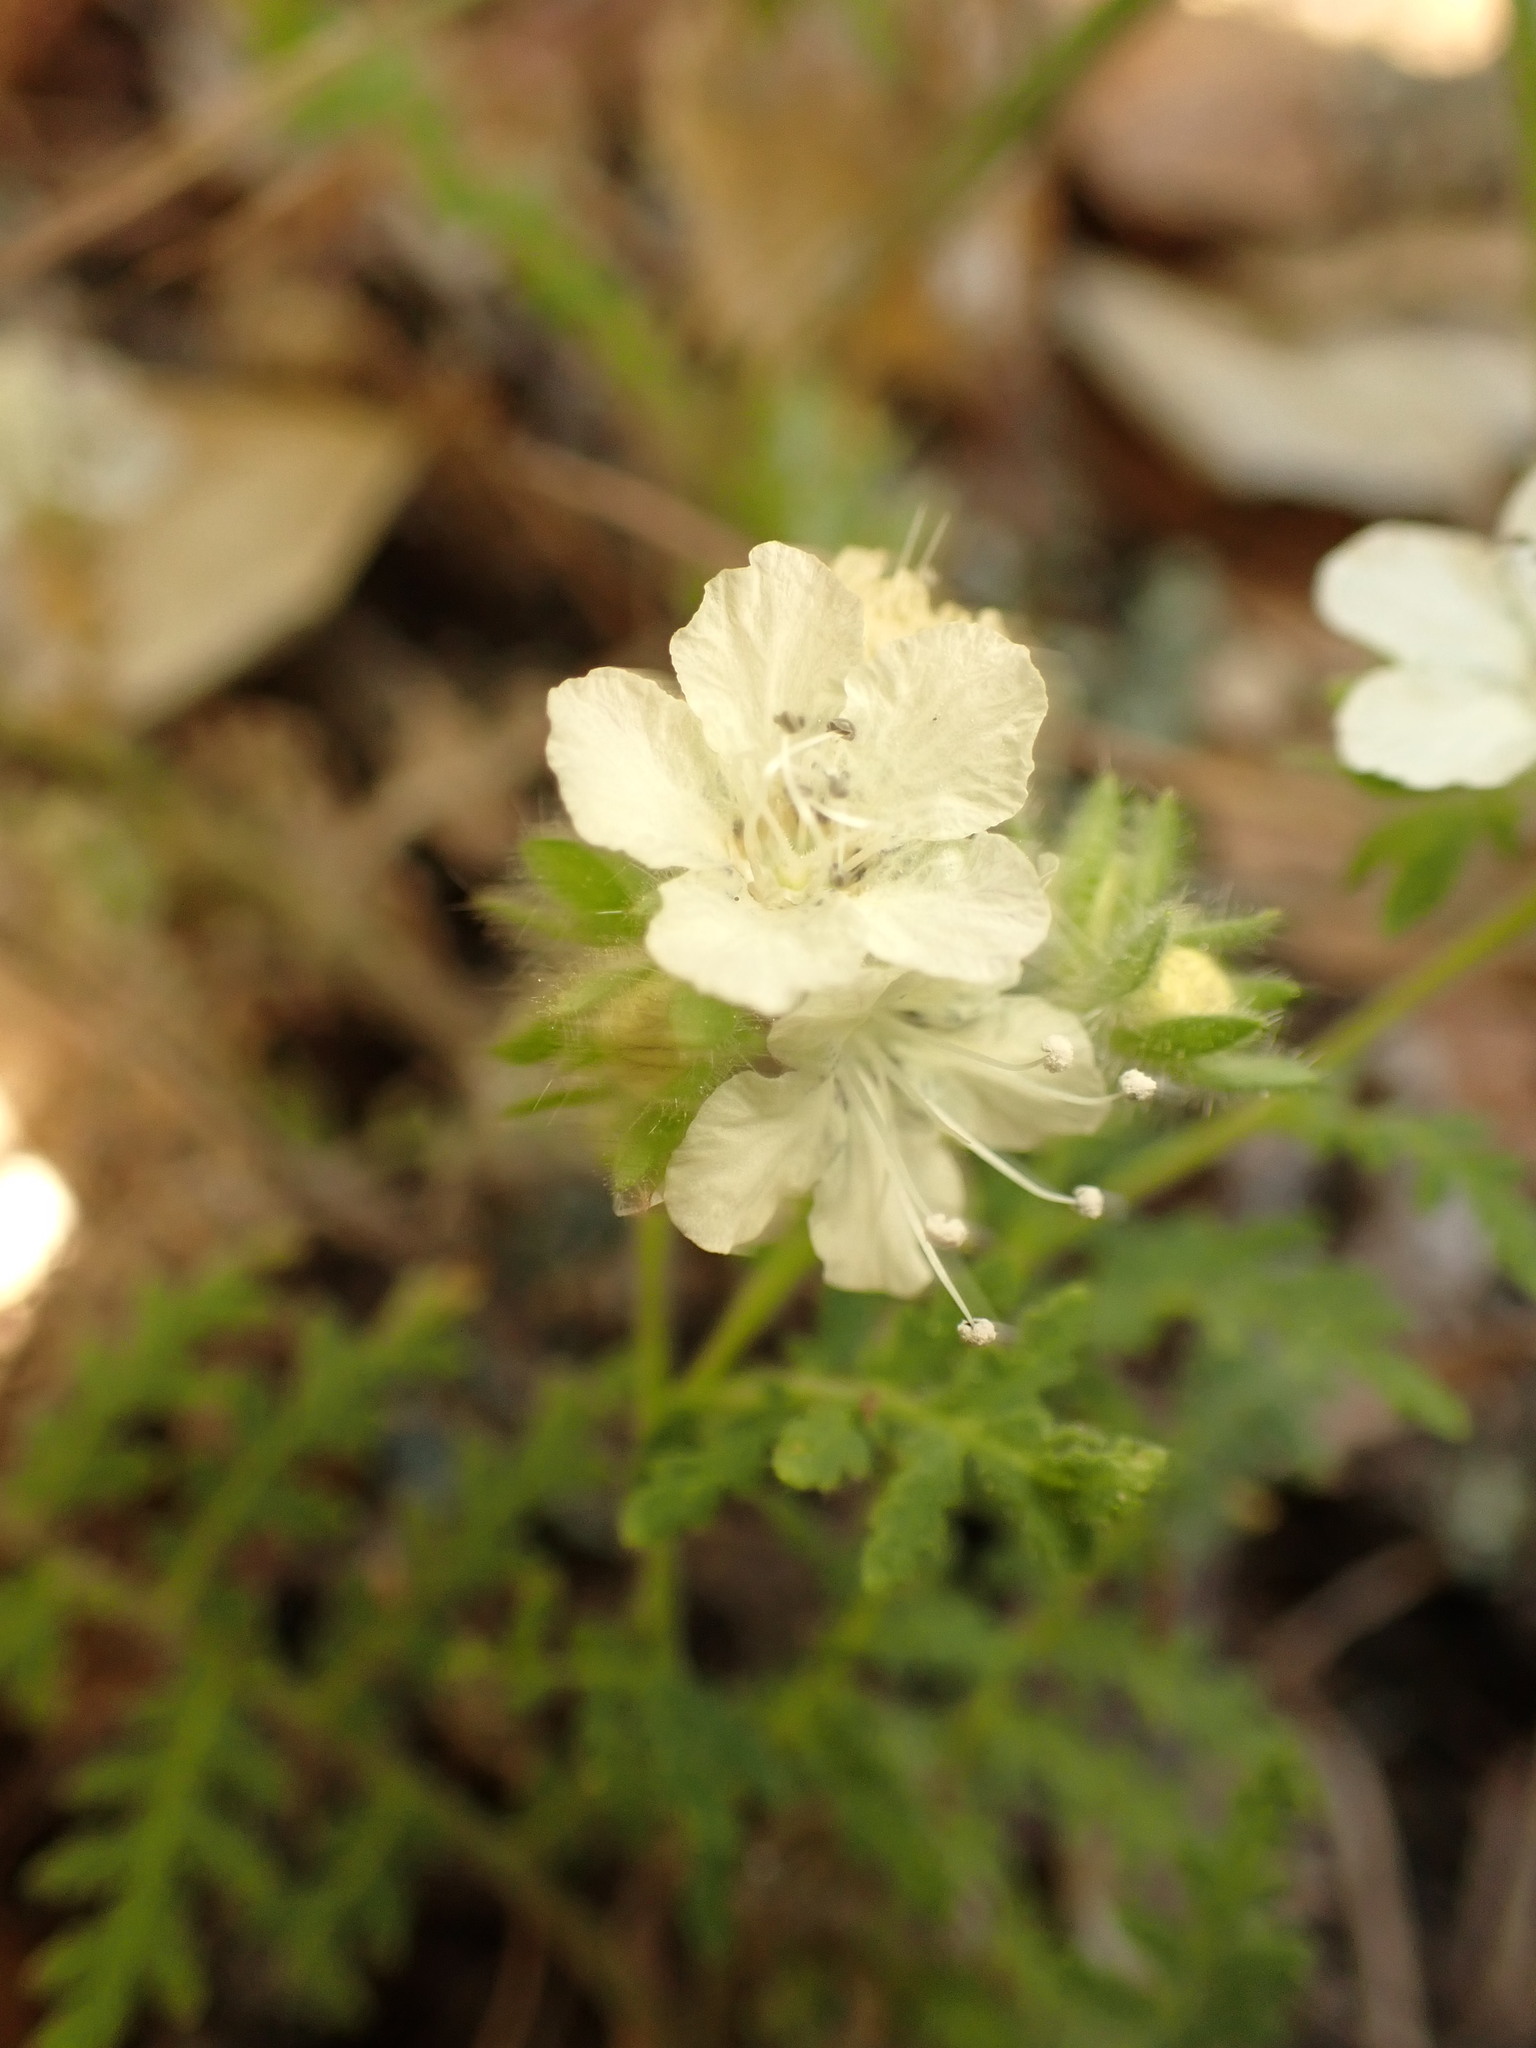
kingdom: Plantae
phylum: Tracheophyta
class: Magnoliopsida
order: Boraginales
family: Hydrophyllaceae
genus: Phacelia
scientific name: Phacelia distans
